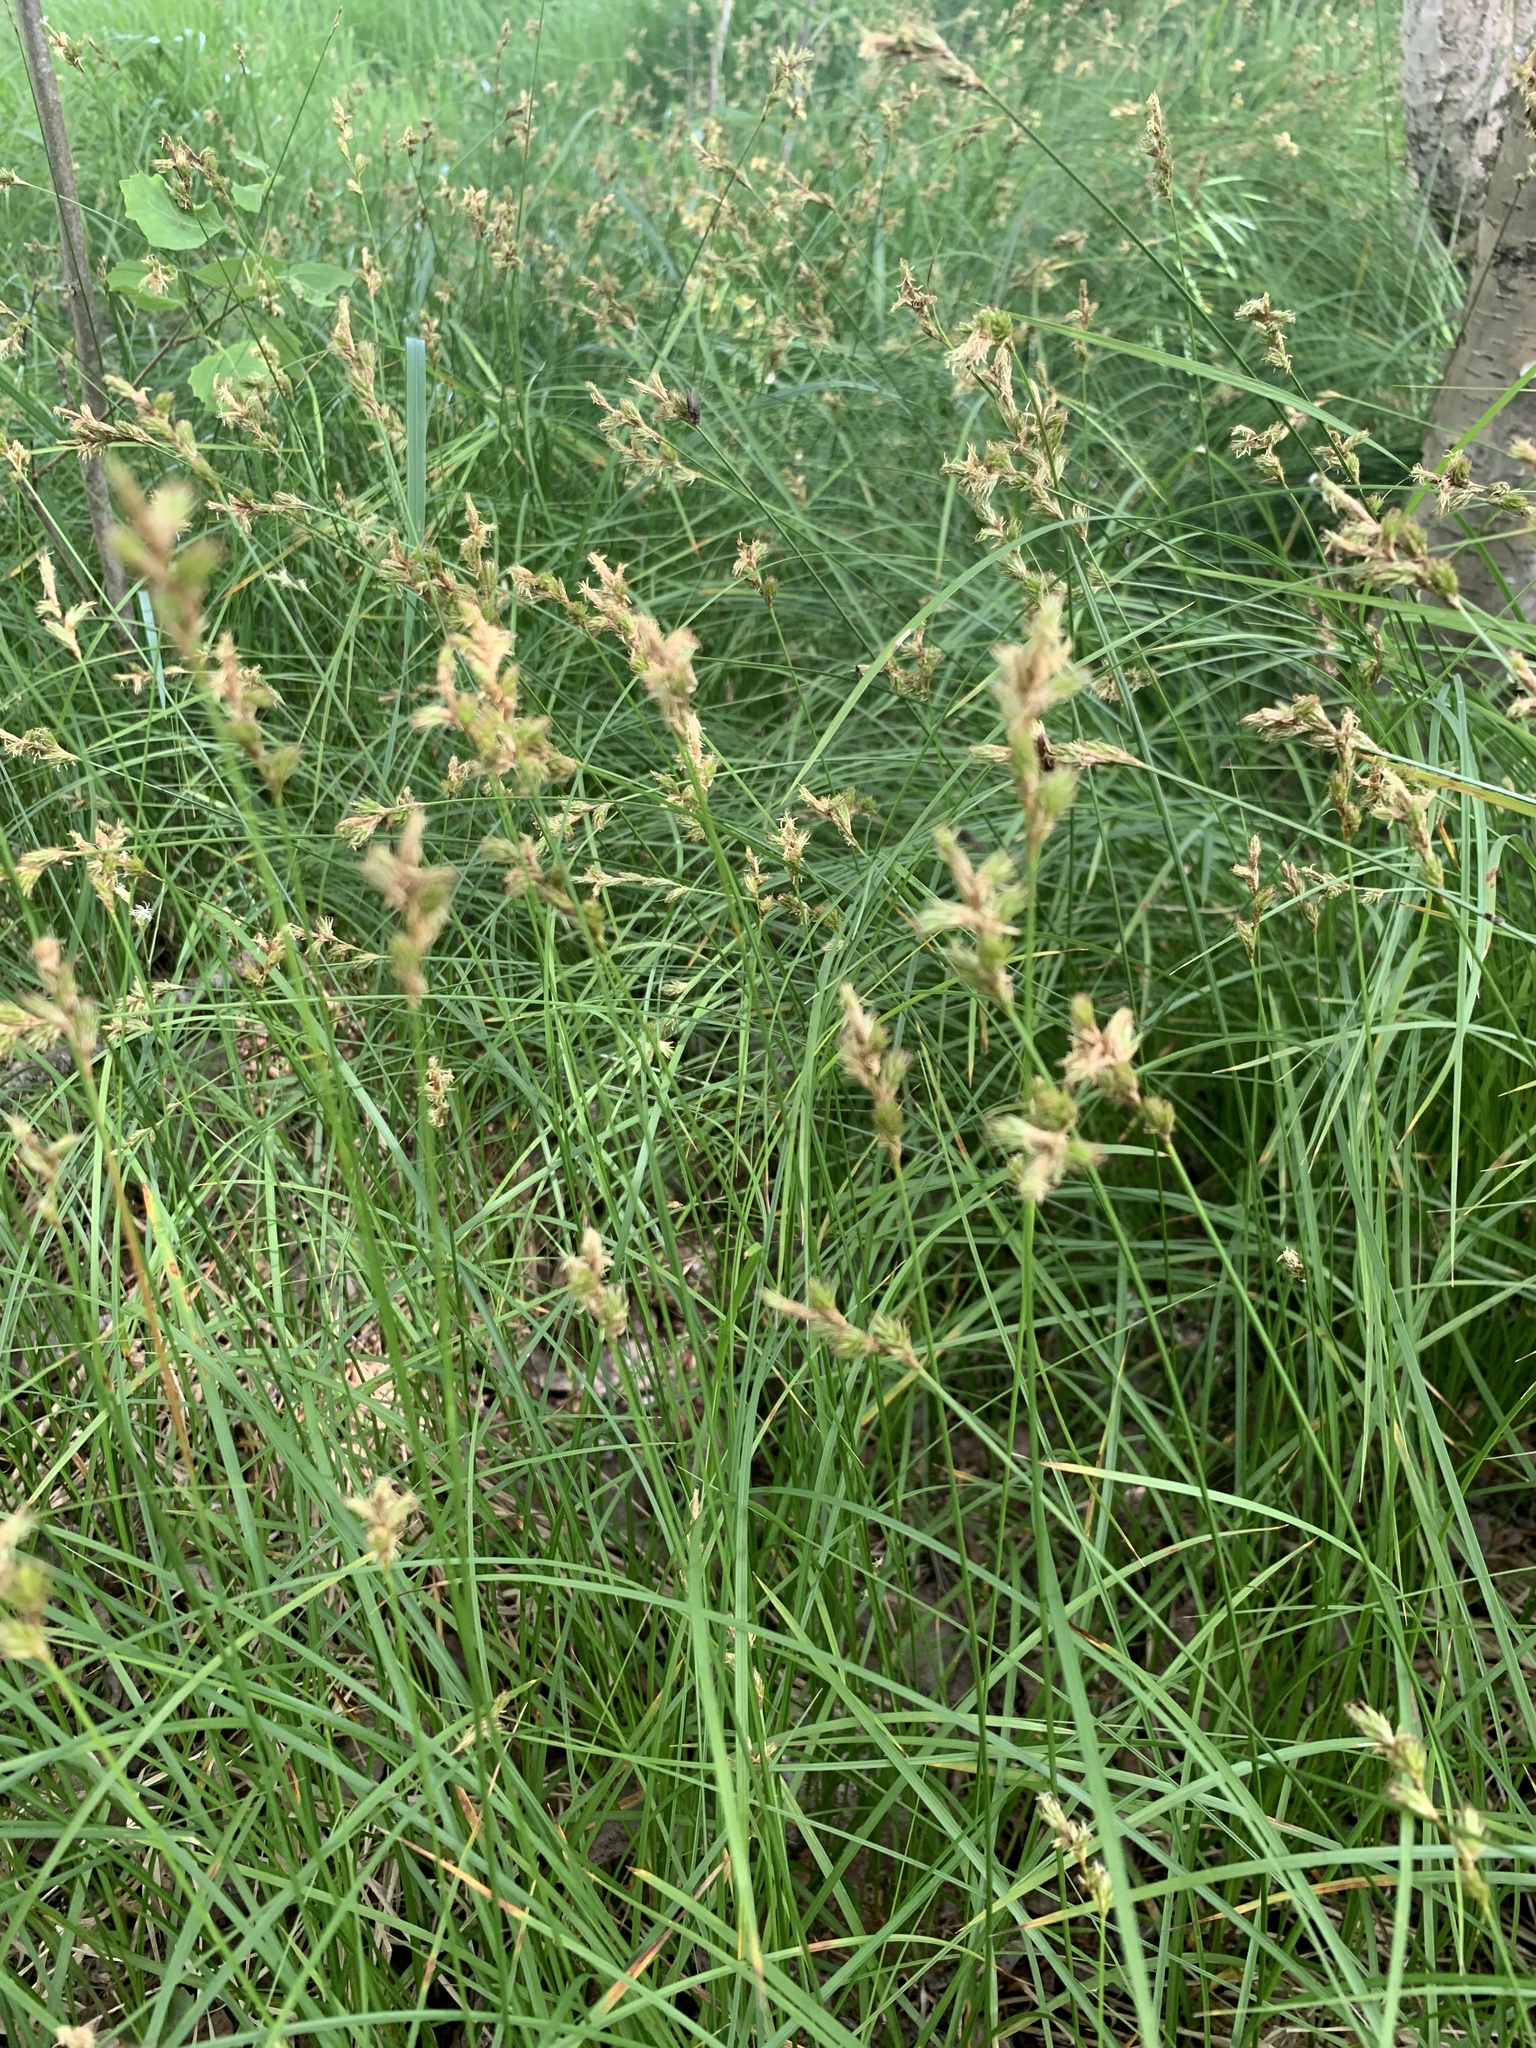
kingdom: Plantae
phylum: Tracheophyta
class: Liliopsida
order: Poales
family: Cyperaceae
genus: Carex
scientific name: Carex brizoides
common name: Quaking-grass sedge
